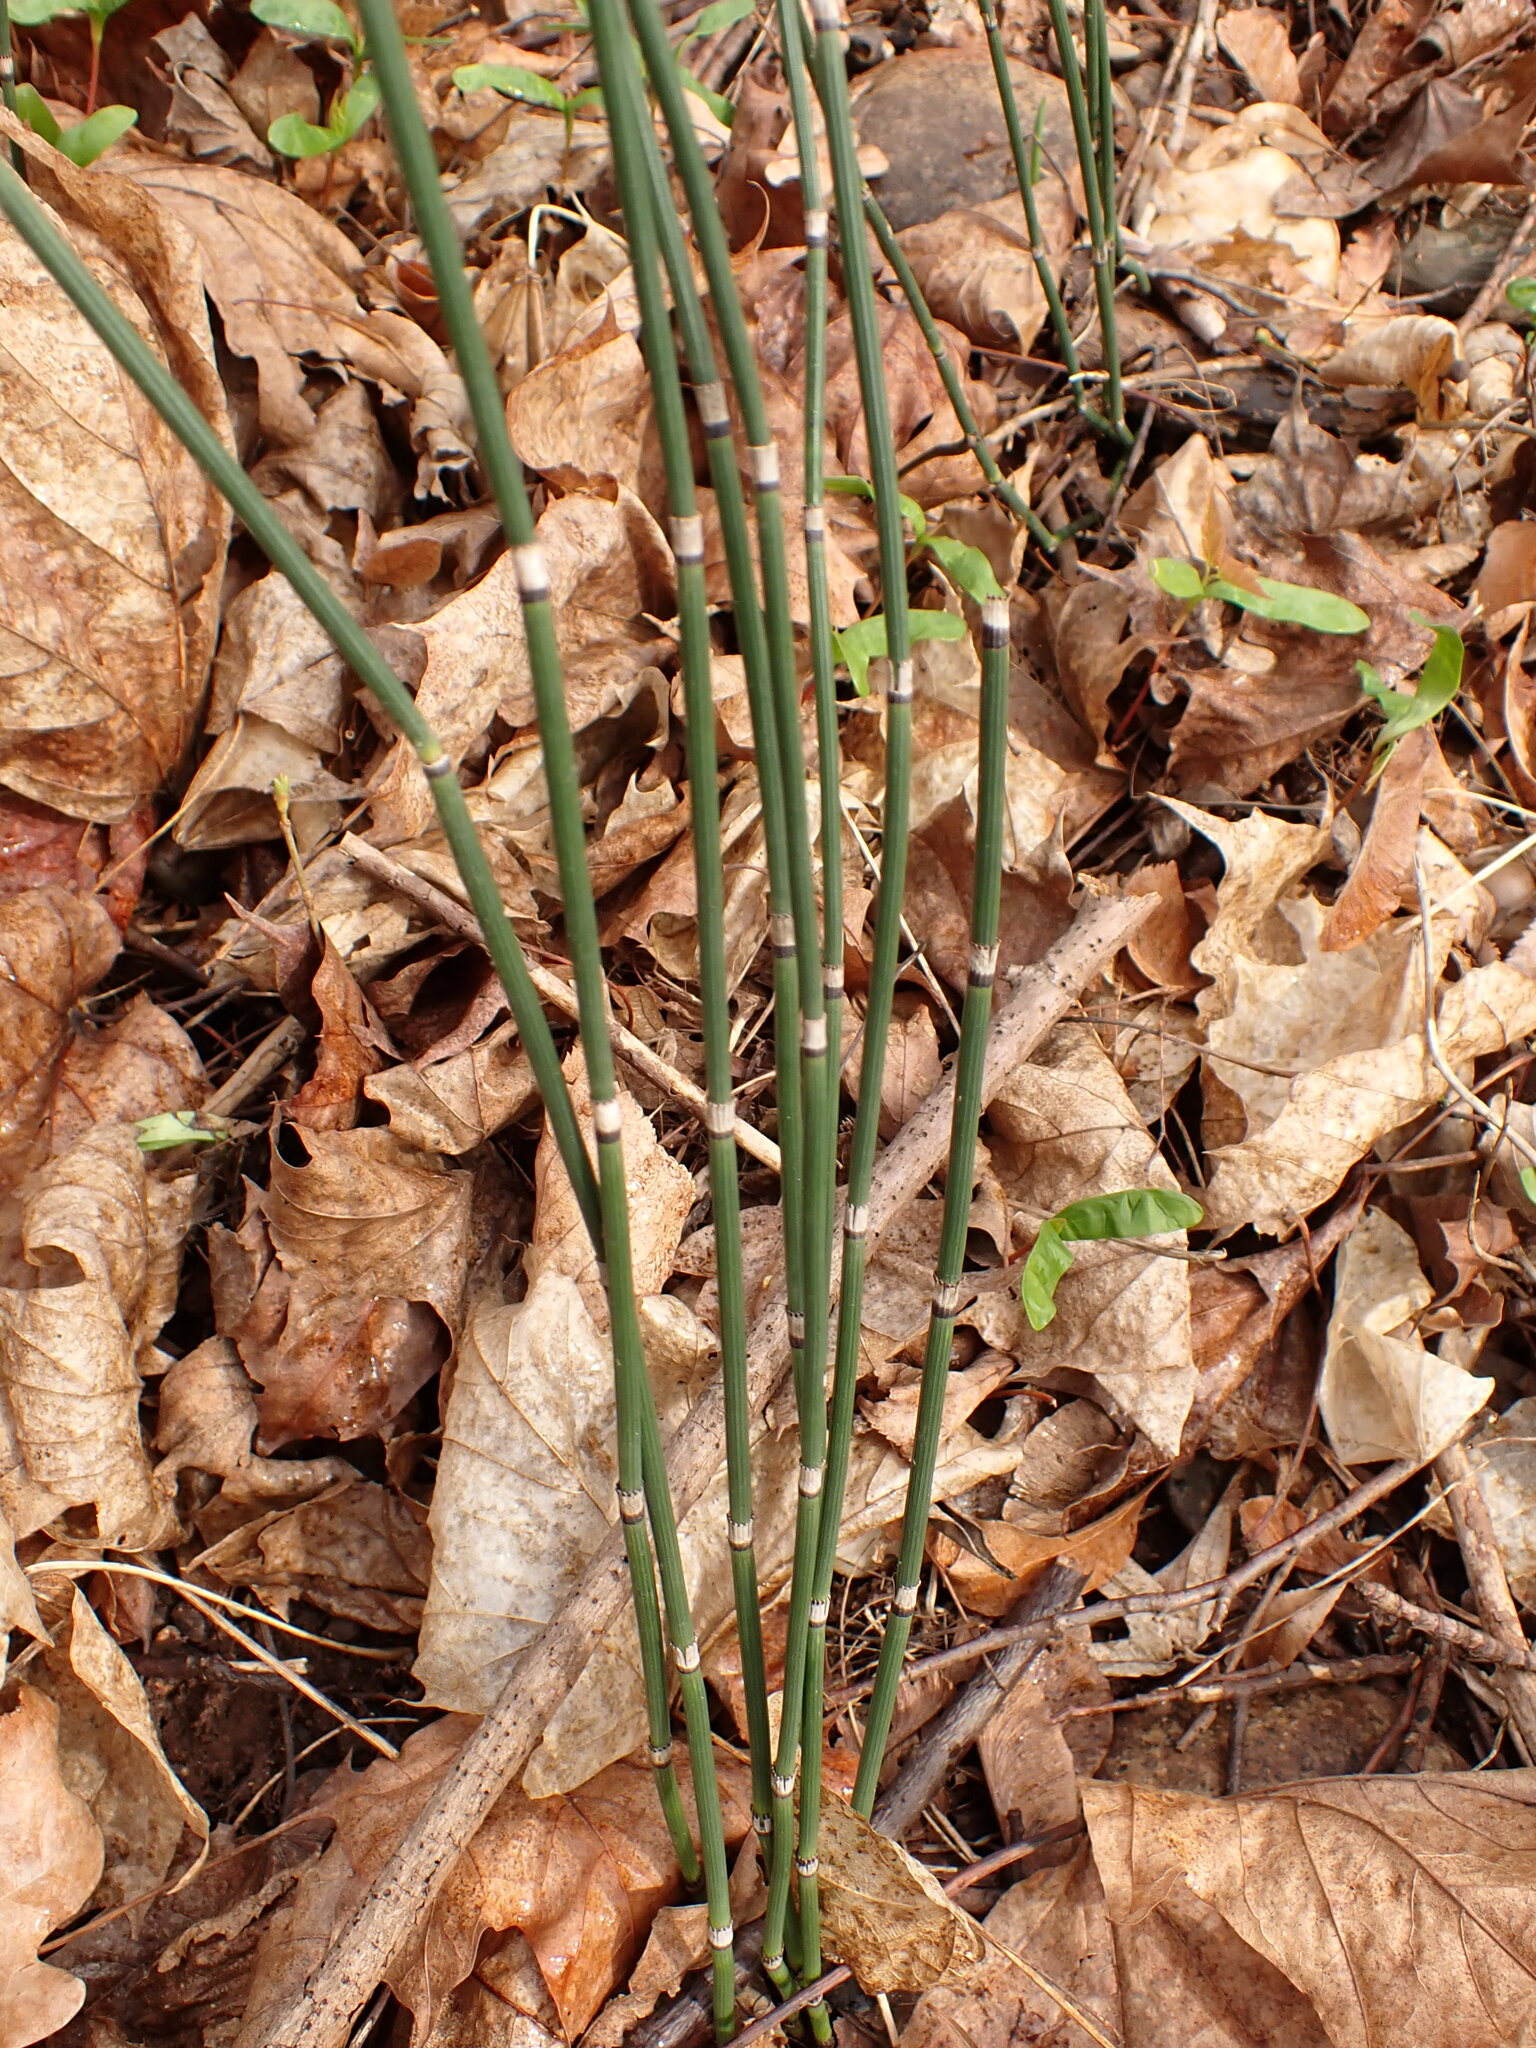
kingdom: Plantae
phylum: Tracheophyta
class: Polypodiopsida
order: Equisetales
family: Equisetaceae
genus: Equisetum
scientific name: Equisetum hyemale
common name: Rough horsetail
